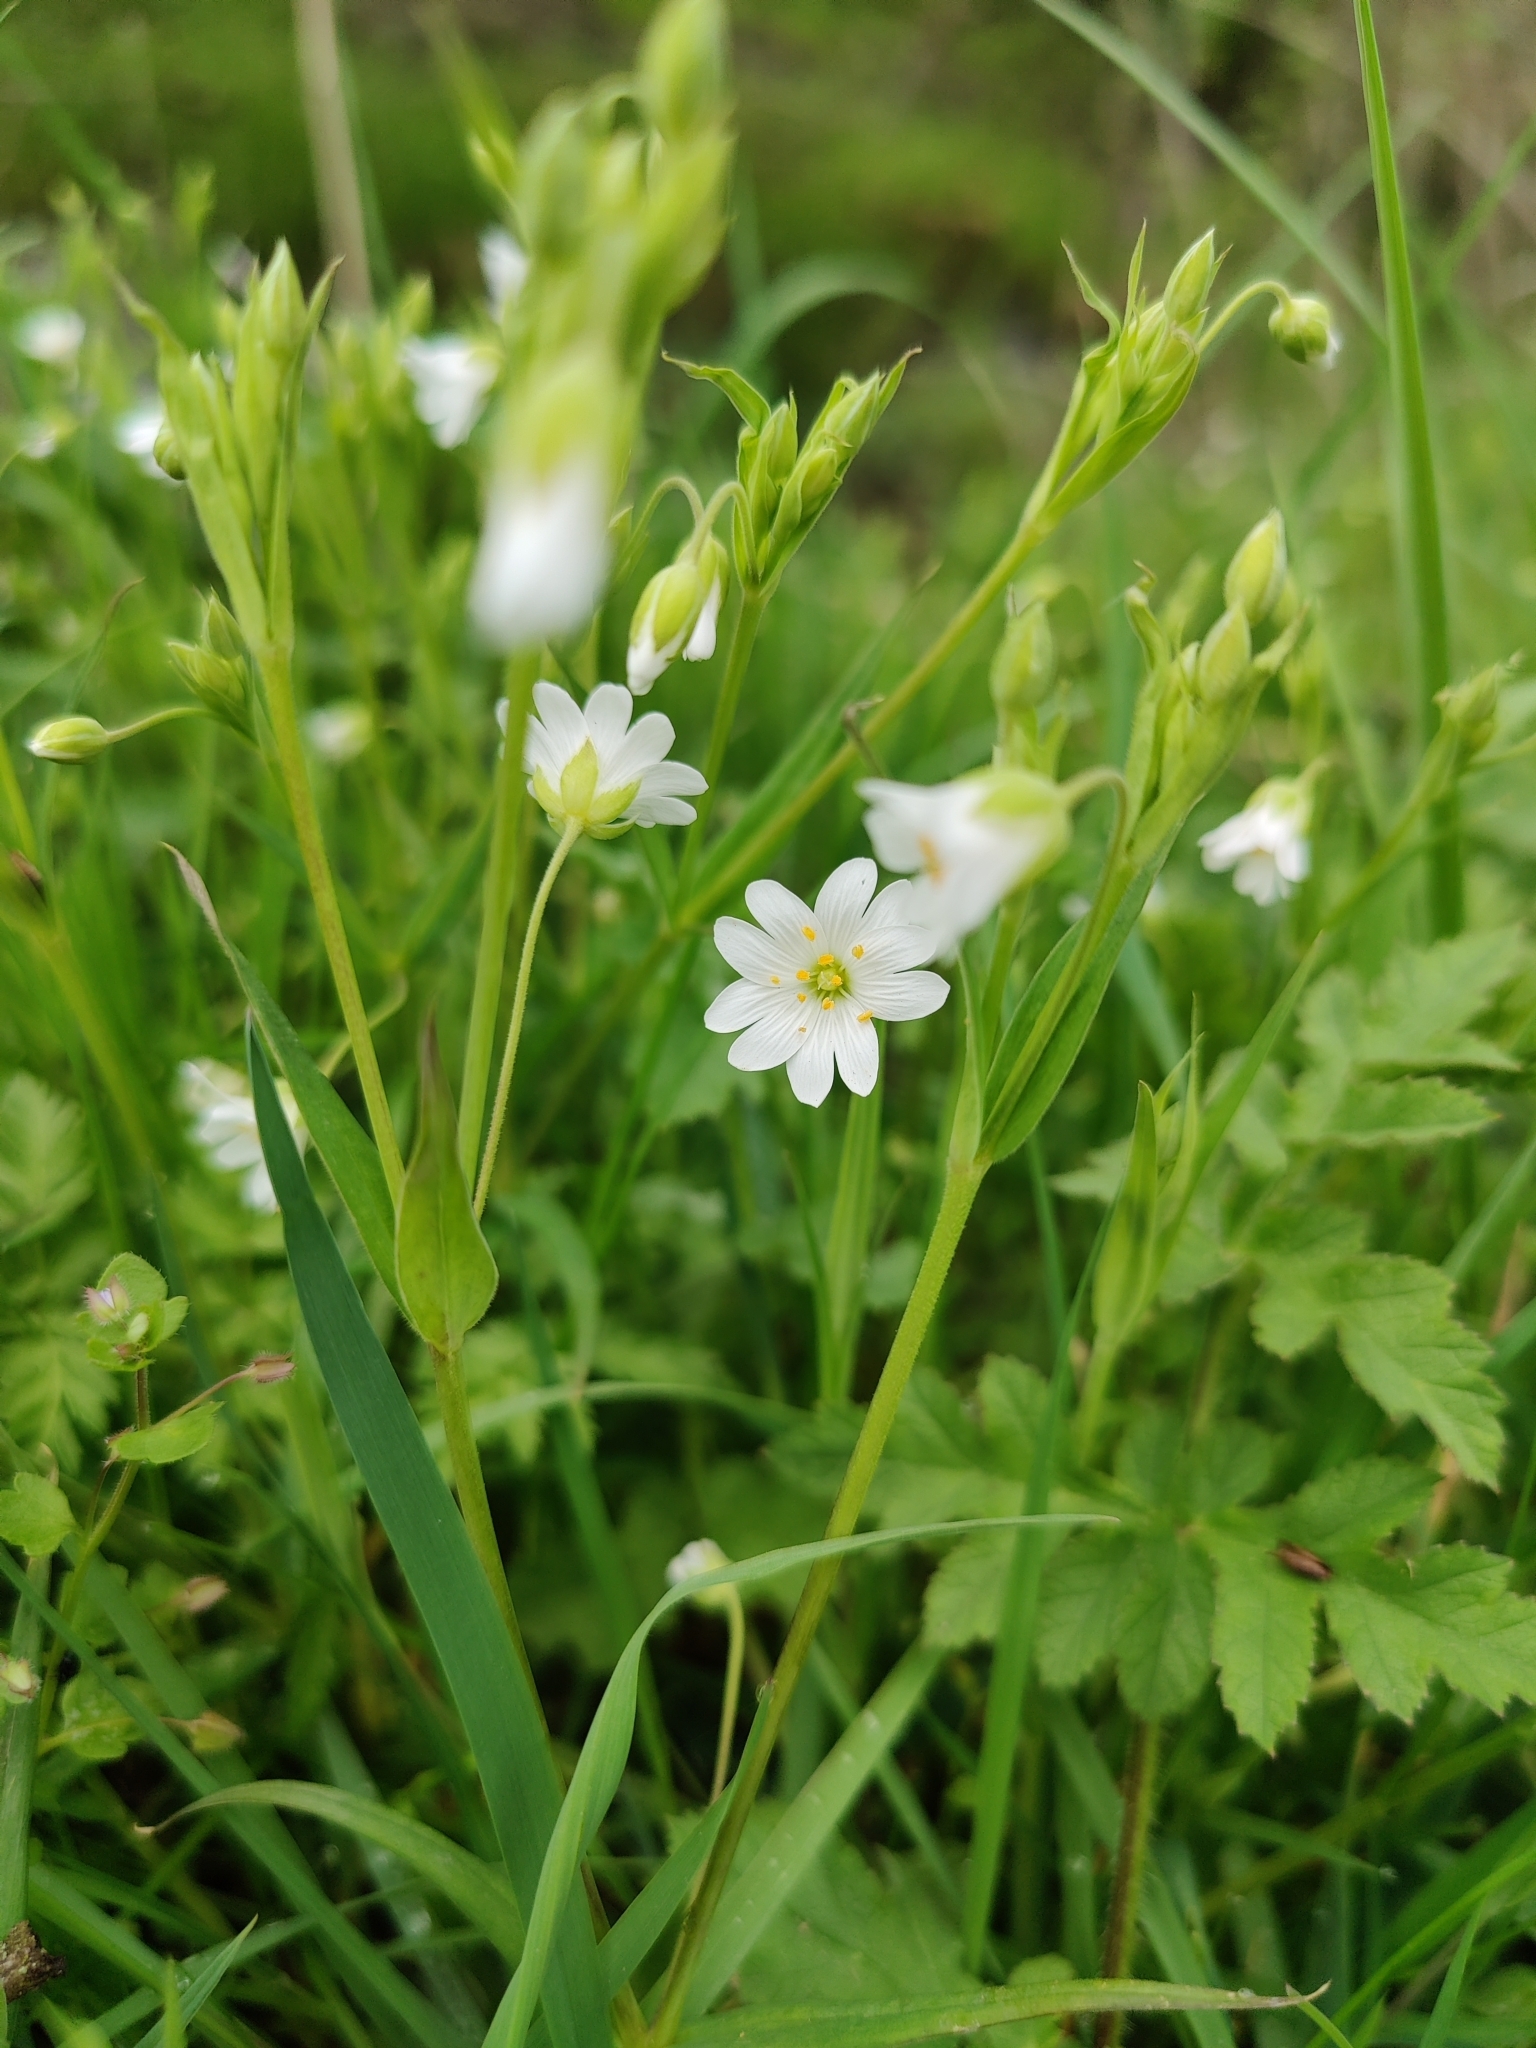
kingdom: Plantae
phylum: Tracheophyta
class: Magnoliopsida
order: Caryophyllales
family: Caryophyllaceae
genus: Rabelera
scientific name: Rabelera holostea
